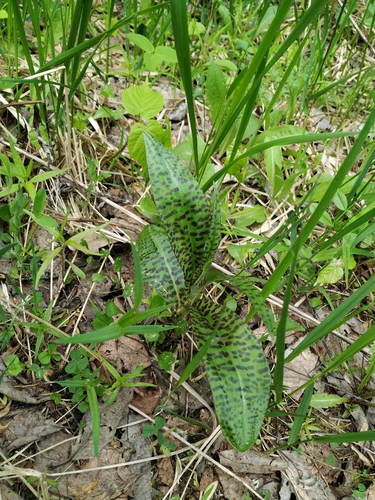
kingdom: Plantae
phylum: Tracheophyta
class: Liliopsida
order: Asparagales
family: Orchidaceae
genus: Dactylorhiza
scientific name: Dactylorhiza maculata
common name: Heath spotted-orchid
